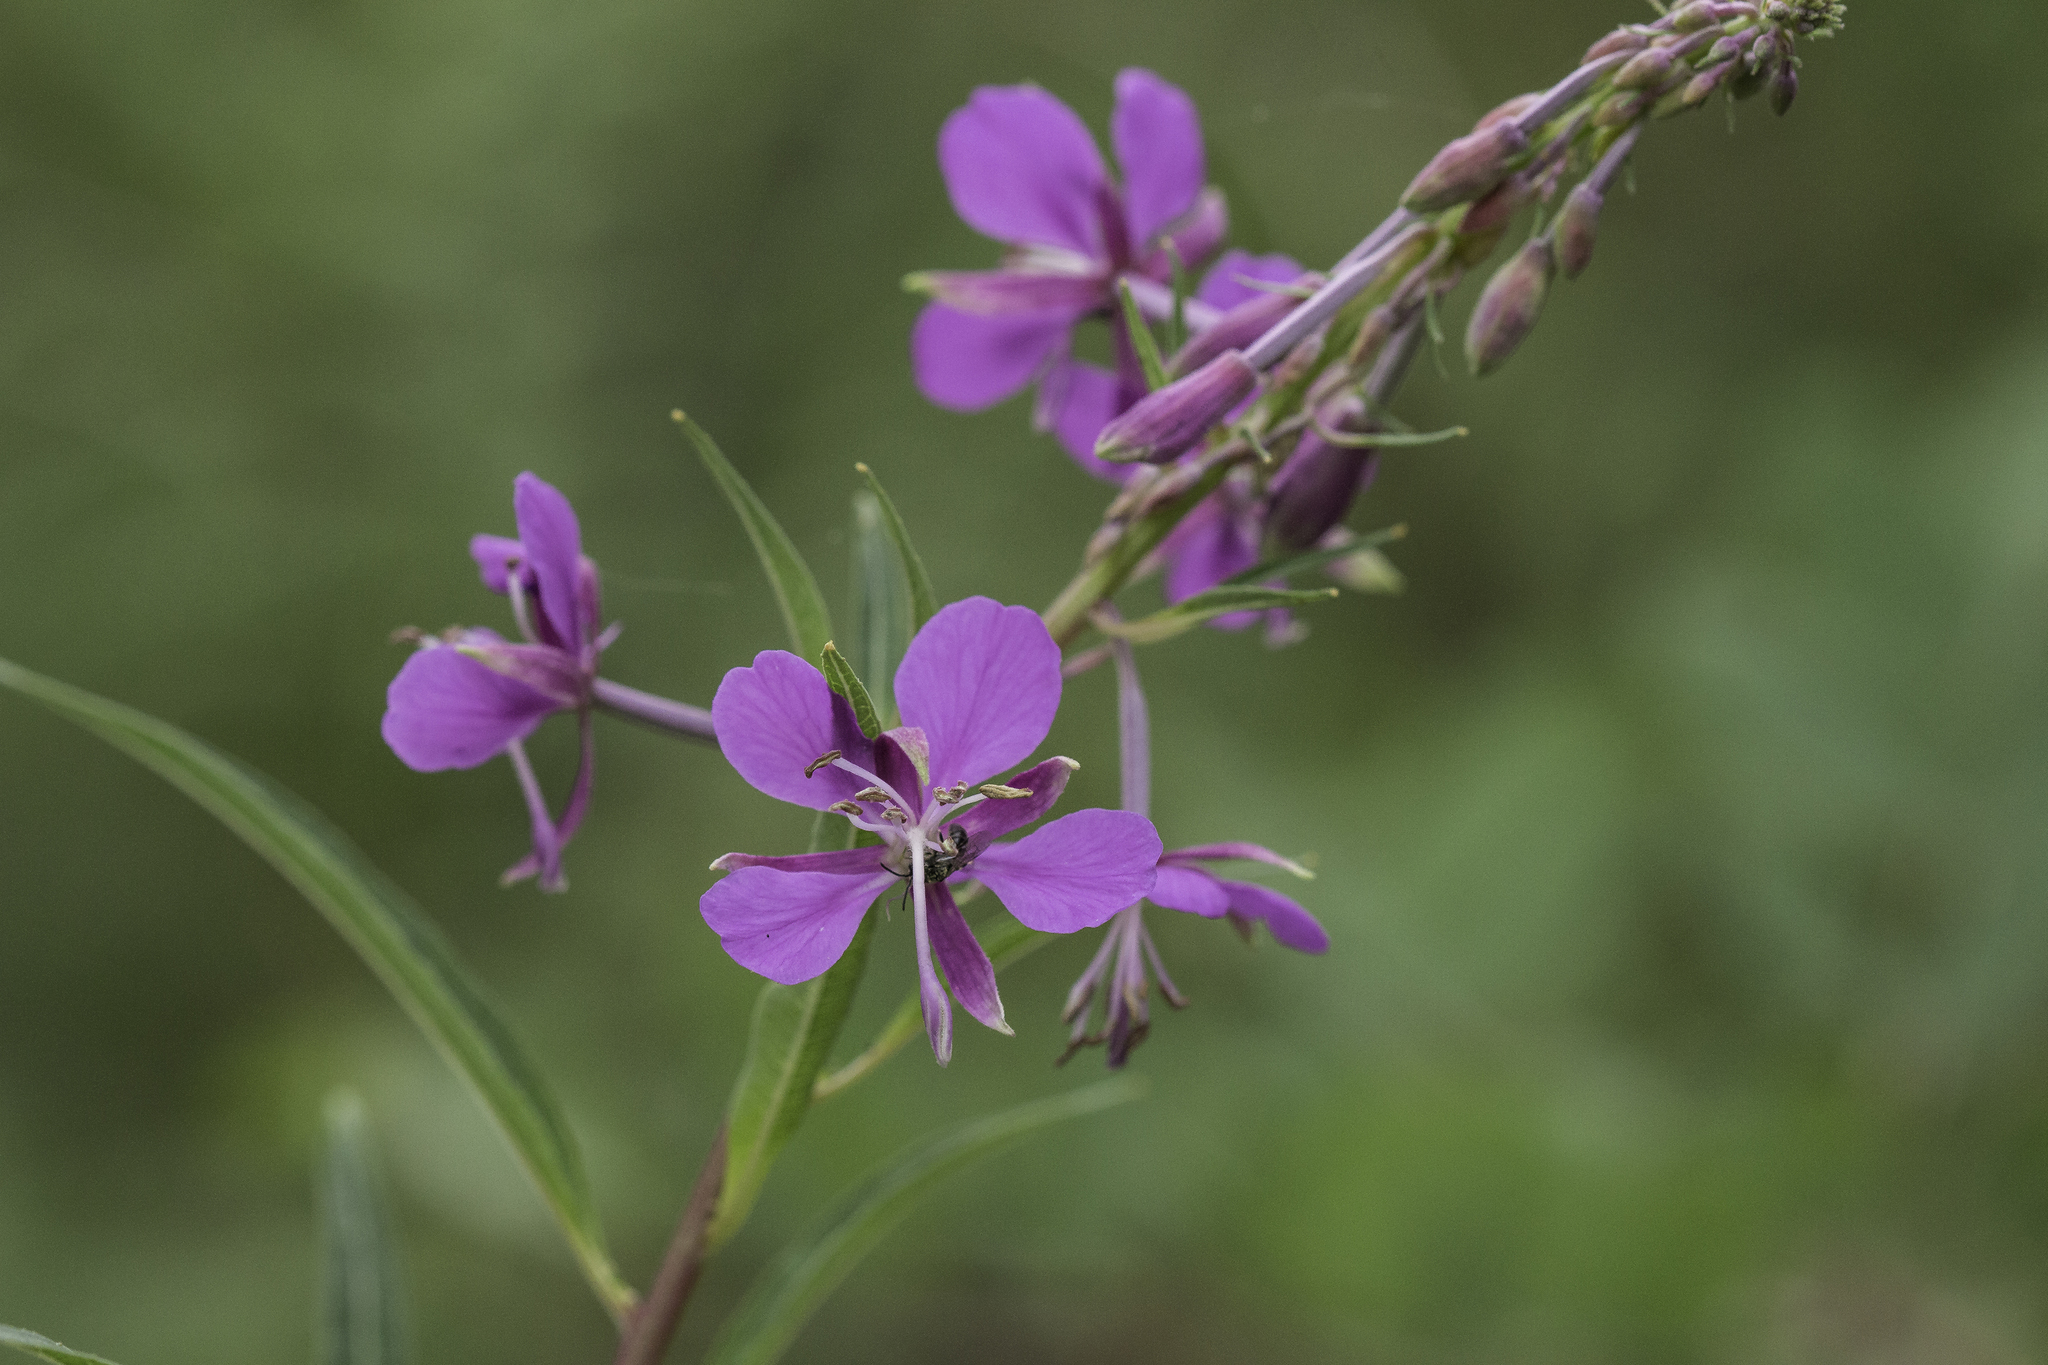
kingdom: Plantae
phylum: Tracheophyta
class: Magnoliopsida
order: Myrtales
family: Onagraceae
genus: Chamaenerion
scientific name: Chamaenerion angustifolium
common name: Fireweed
